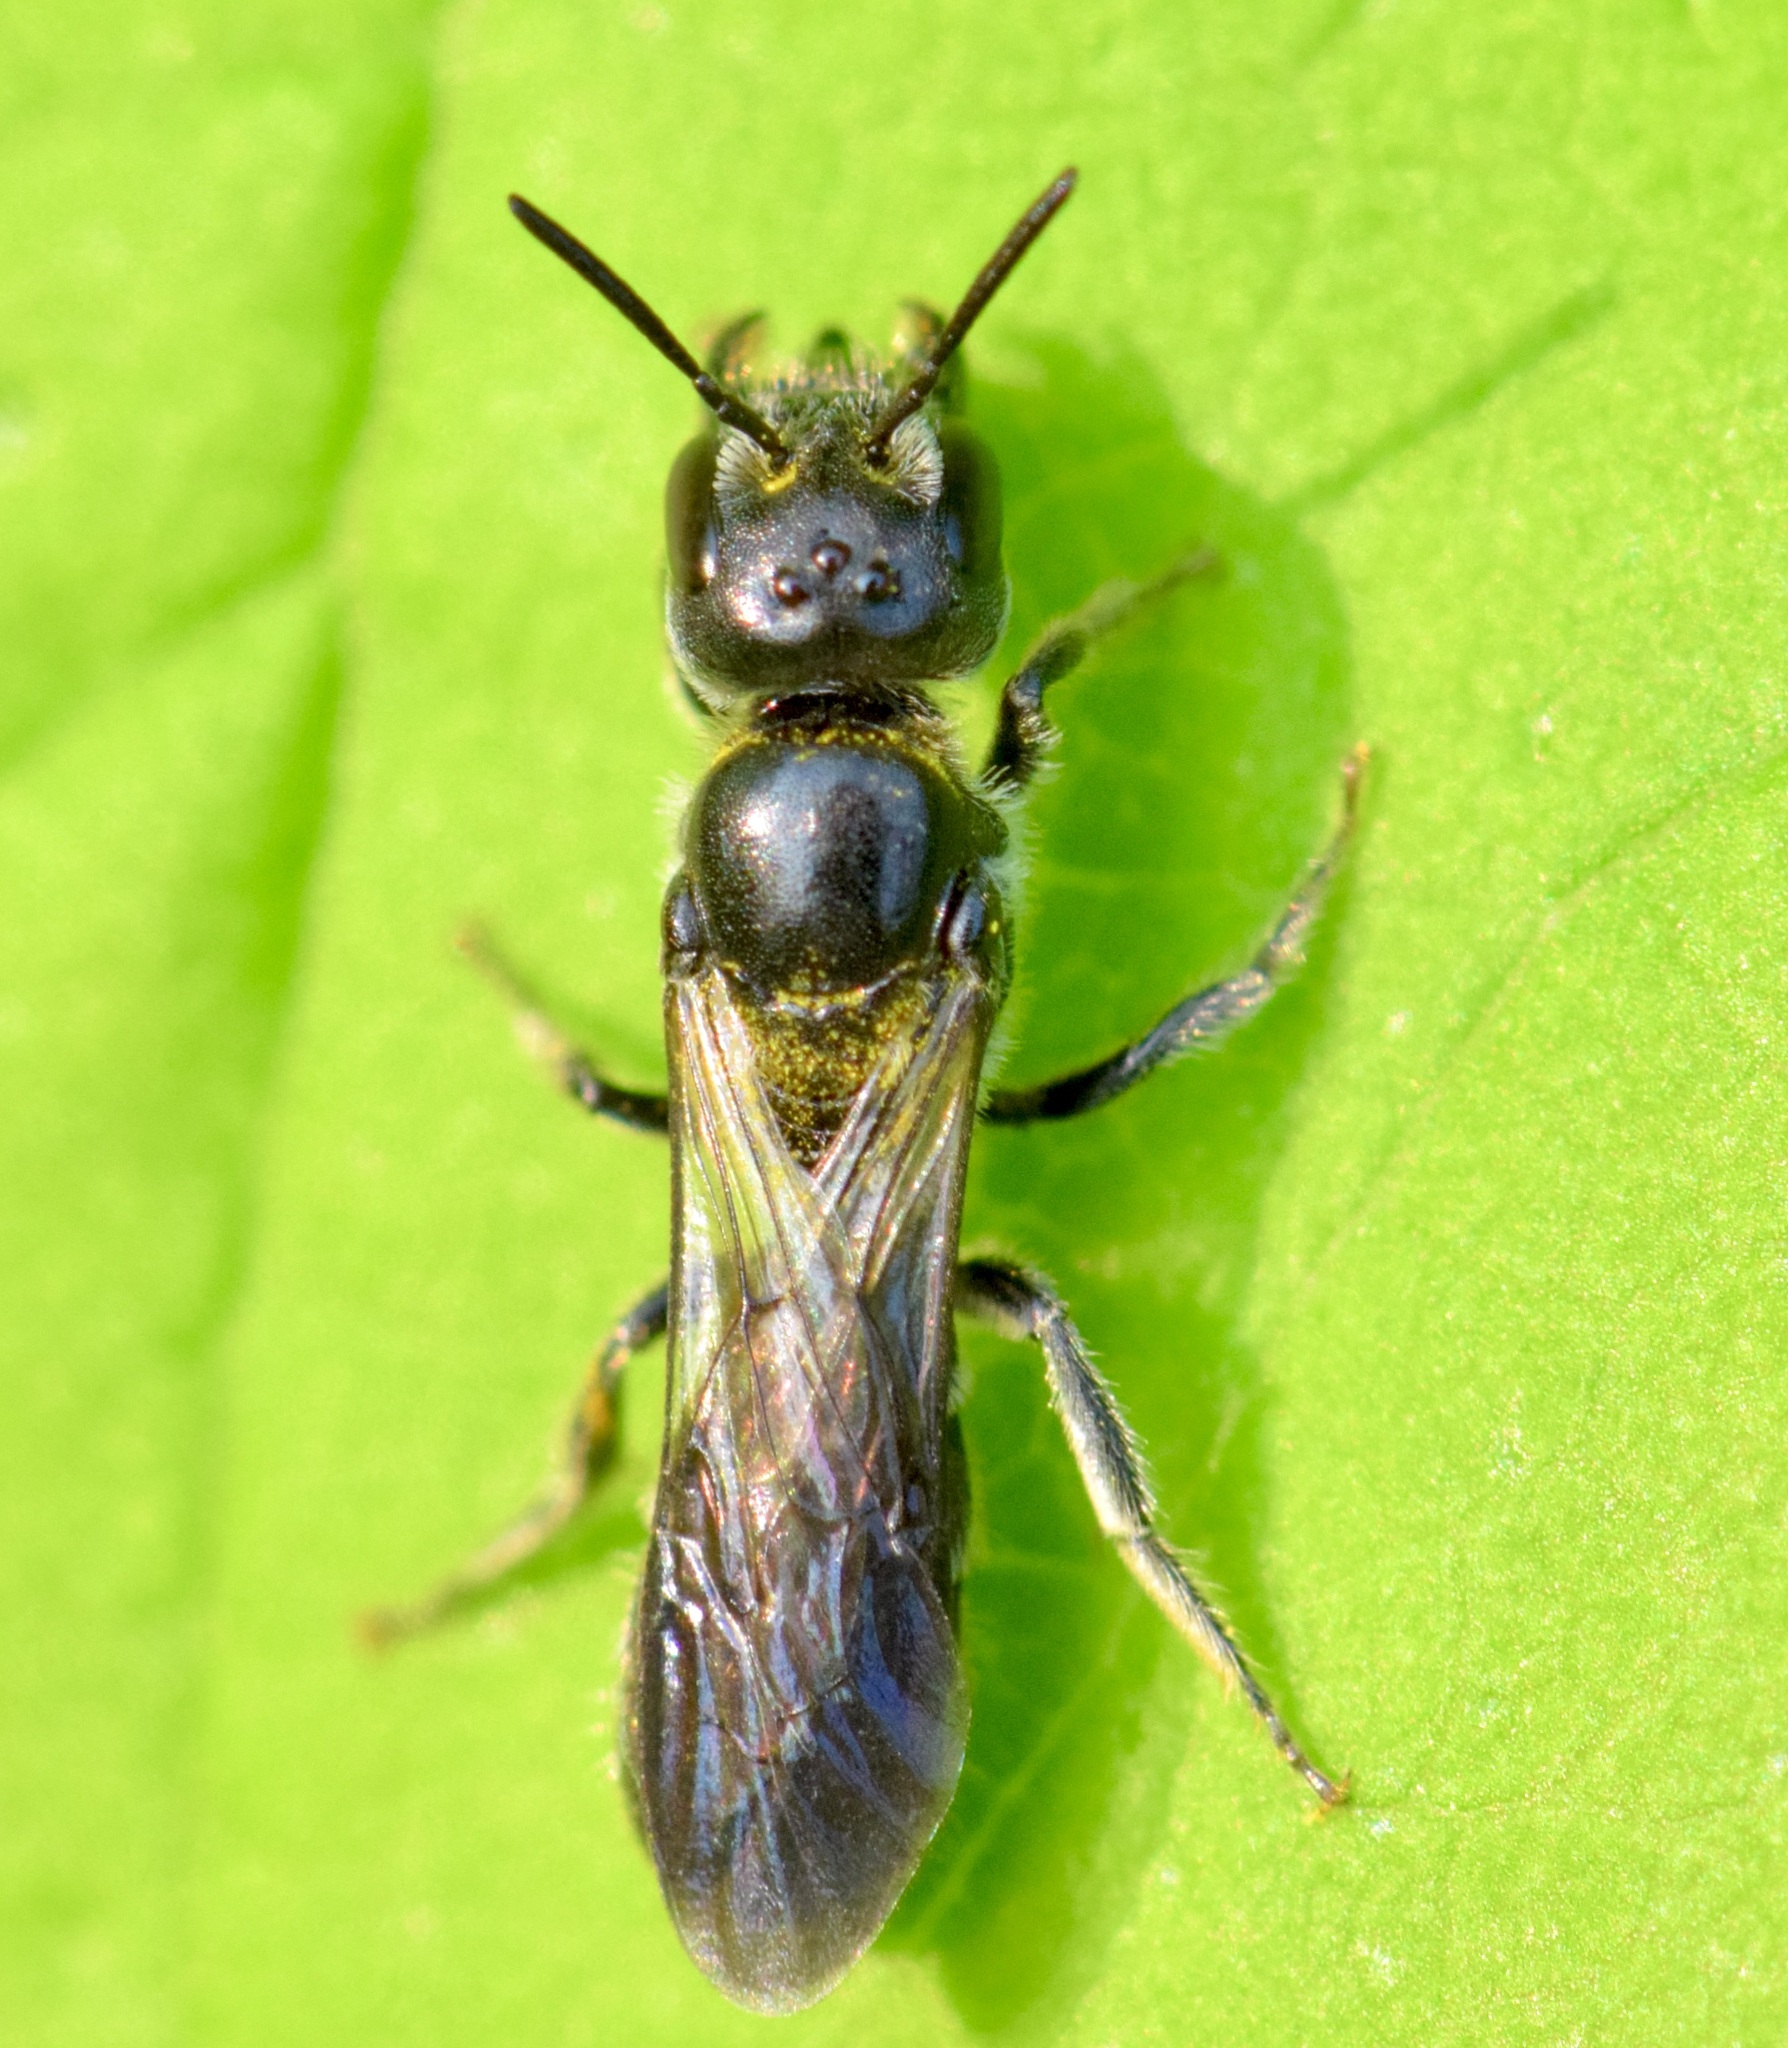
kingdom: Animalia
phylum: Arthropoda
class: Insecta
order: Hymenoptera
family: Megachilidae
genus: Chelostoma
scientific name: Chelostoma philadelphi
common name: Mock-orange scissor bee
